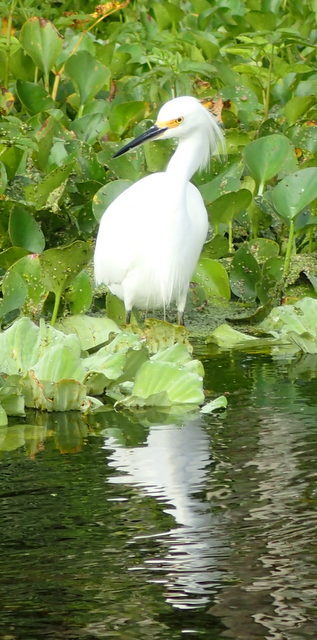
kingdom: Animalia
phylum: Chordata
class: Aves
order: Pelecaniformes
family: Ardeidae
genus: Egretta
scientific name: Egretta thula
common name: Snowy egret
